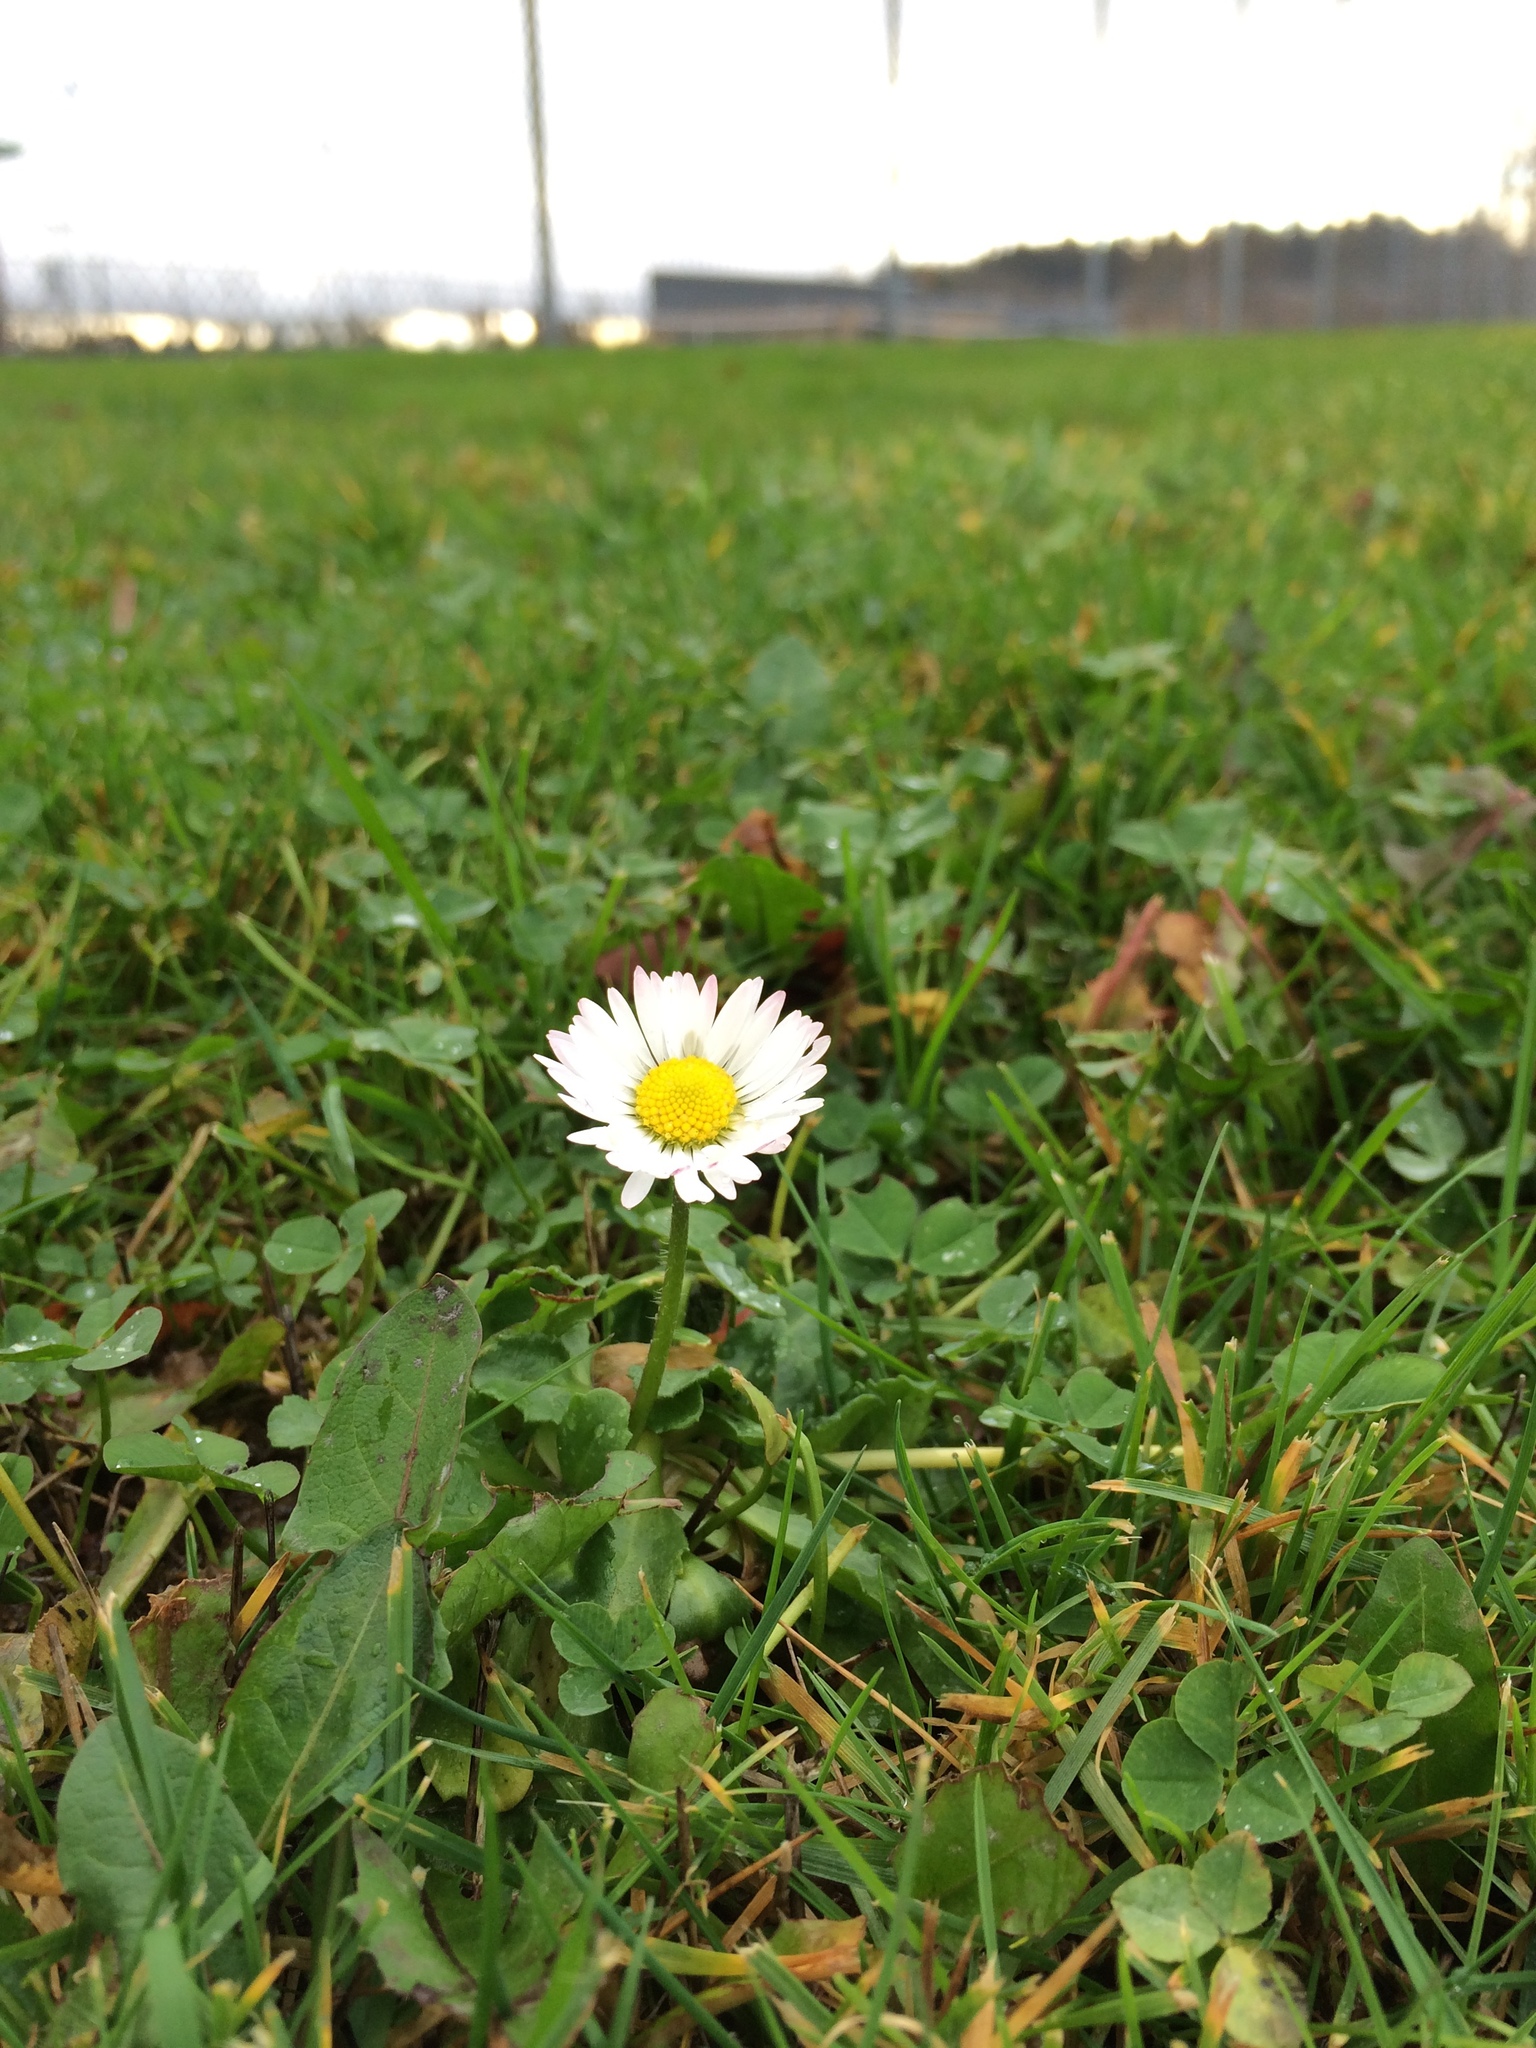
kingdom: Plantae
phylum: Tracheophyta
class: Magnoliopsida
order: Asterales
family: Asteraceae
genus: Bellis
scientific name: Bellis perennis
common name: Lawndaisy
